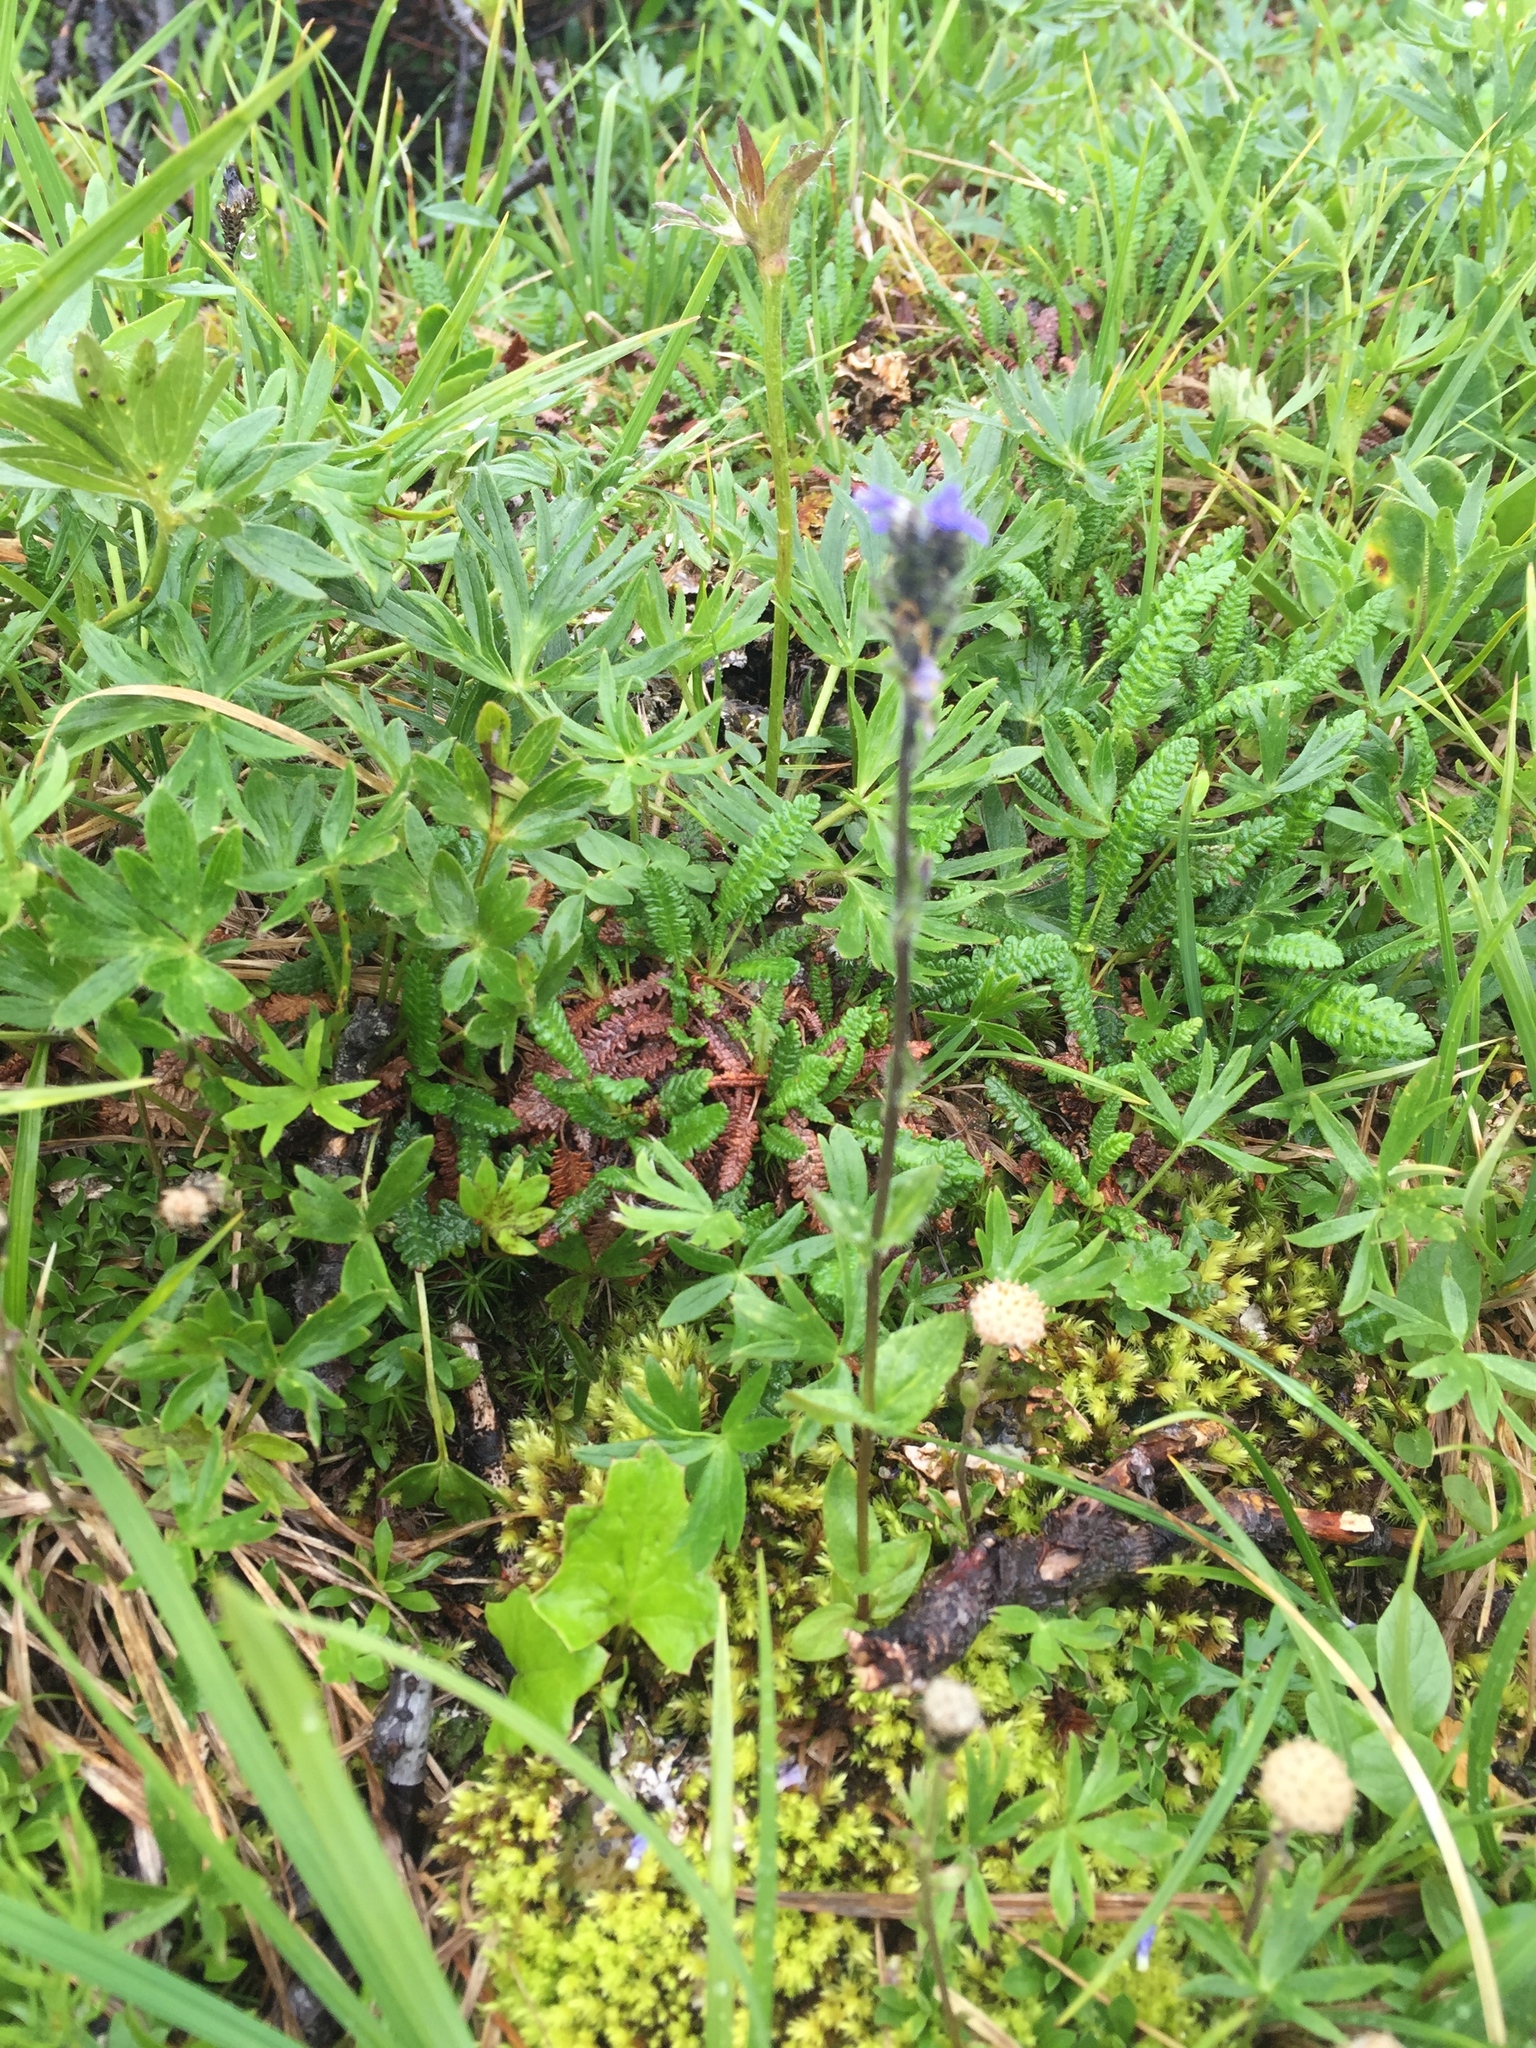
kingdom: Plantae
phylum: Tracheophyta
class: Magnoliopsida
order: Lamiales
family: Plantaginaceae
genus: Veronica
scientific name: Veronica wormskjoldii
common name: American alpine speedwell
